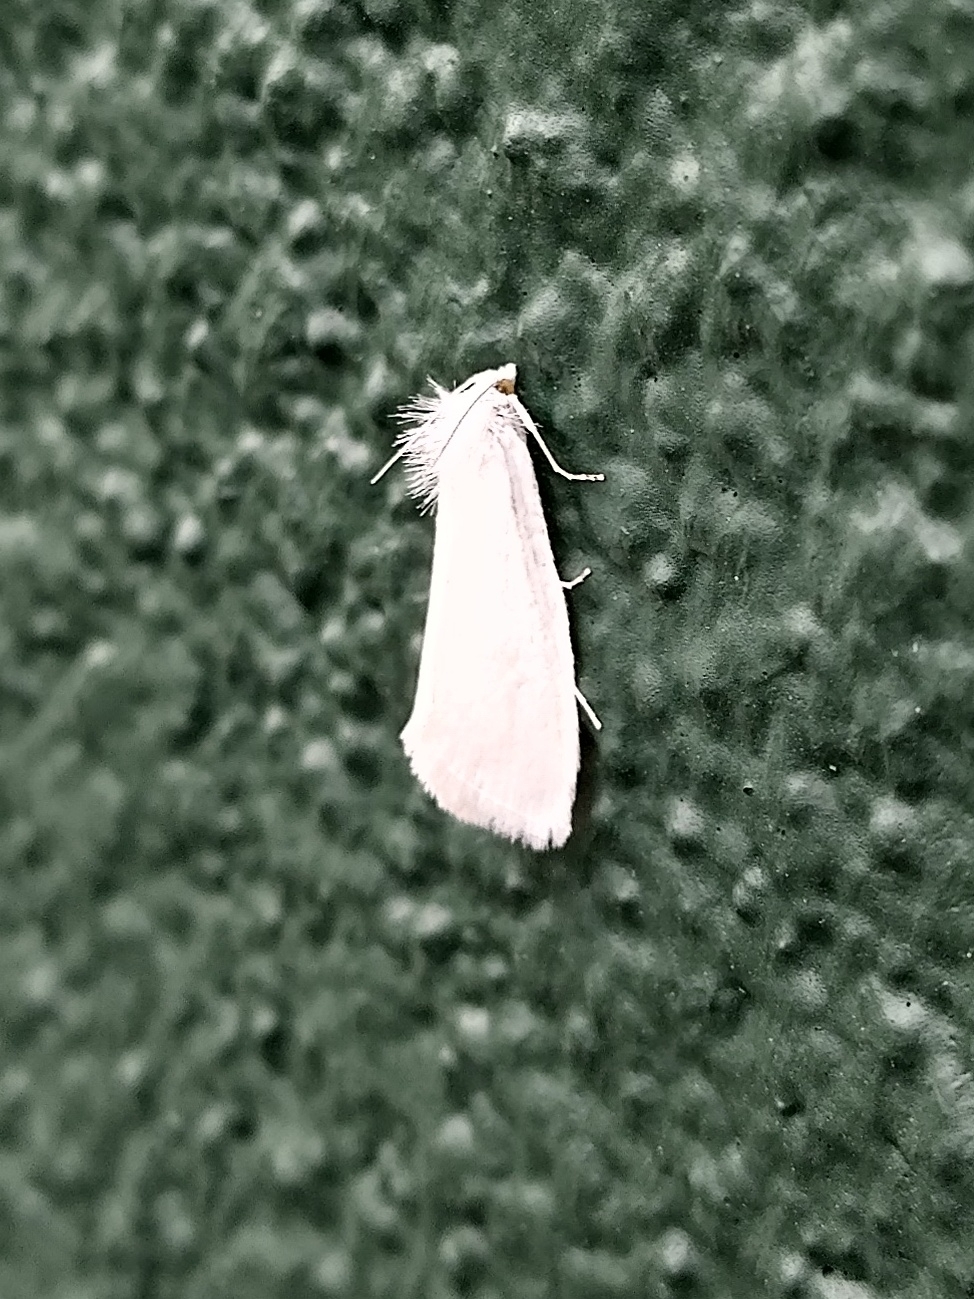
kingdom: Animalia
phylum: Arthropoda
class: Insecta
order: Lepidoptera
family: Crambidae
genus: Tipanaea
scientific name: Tipanaea patulella
